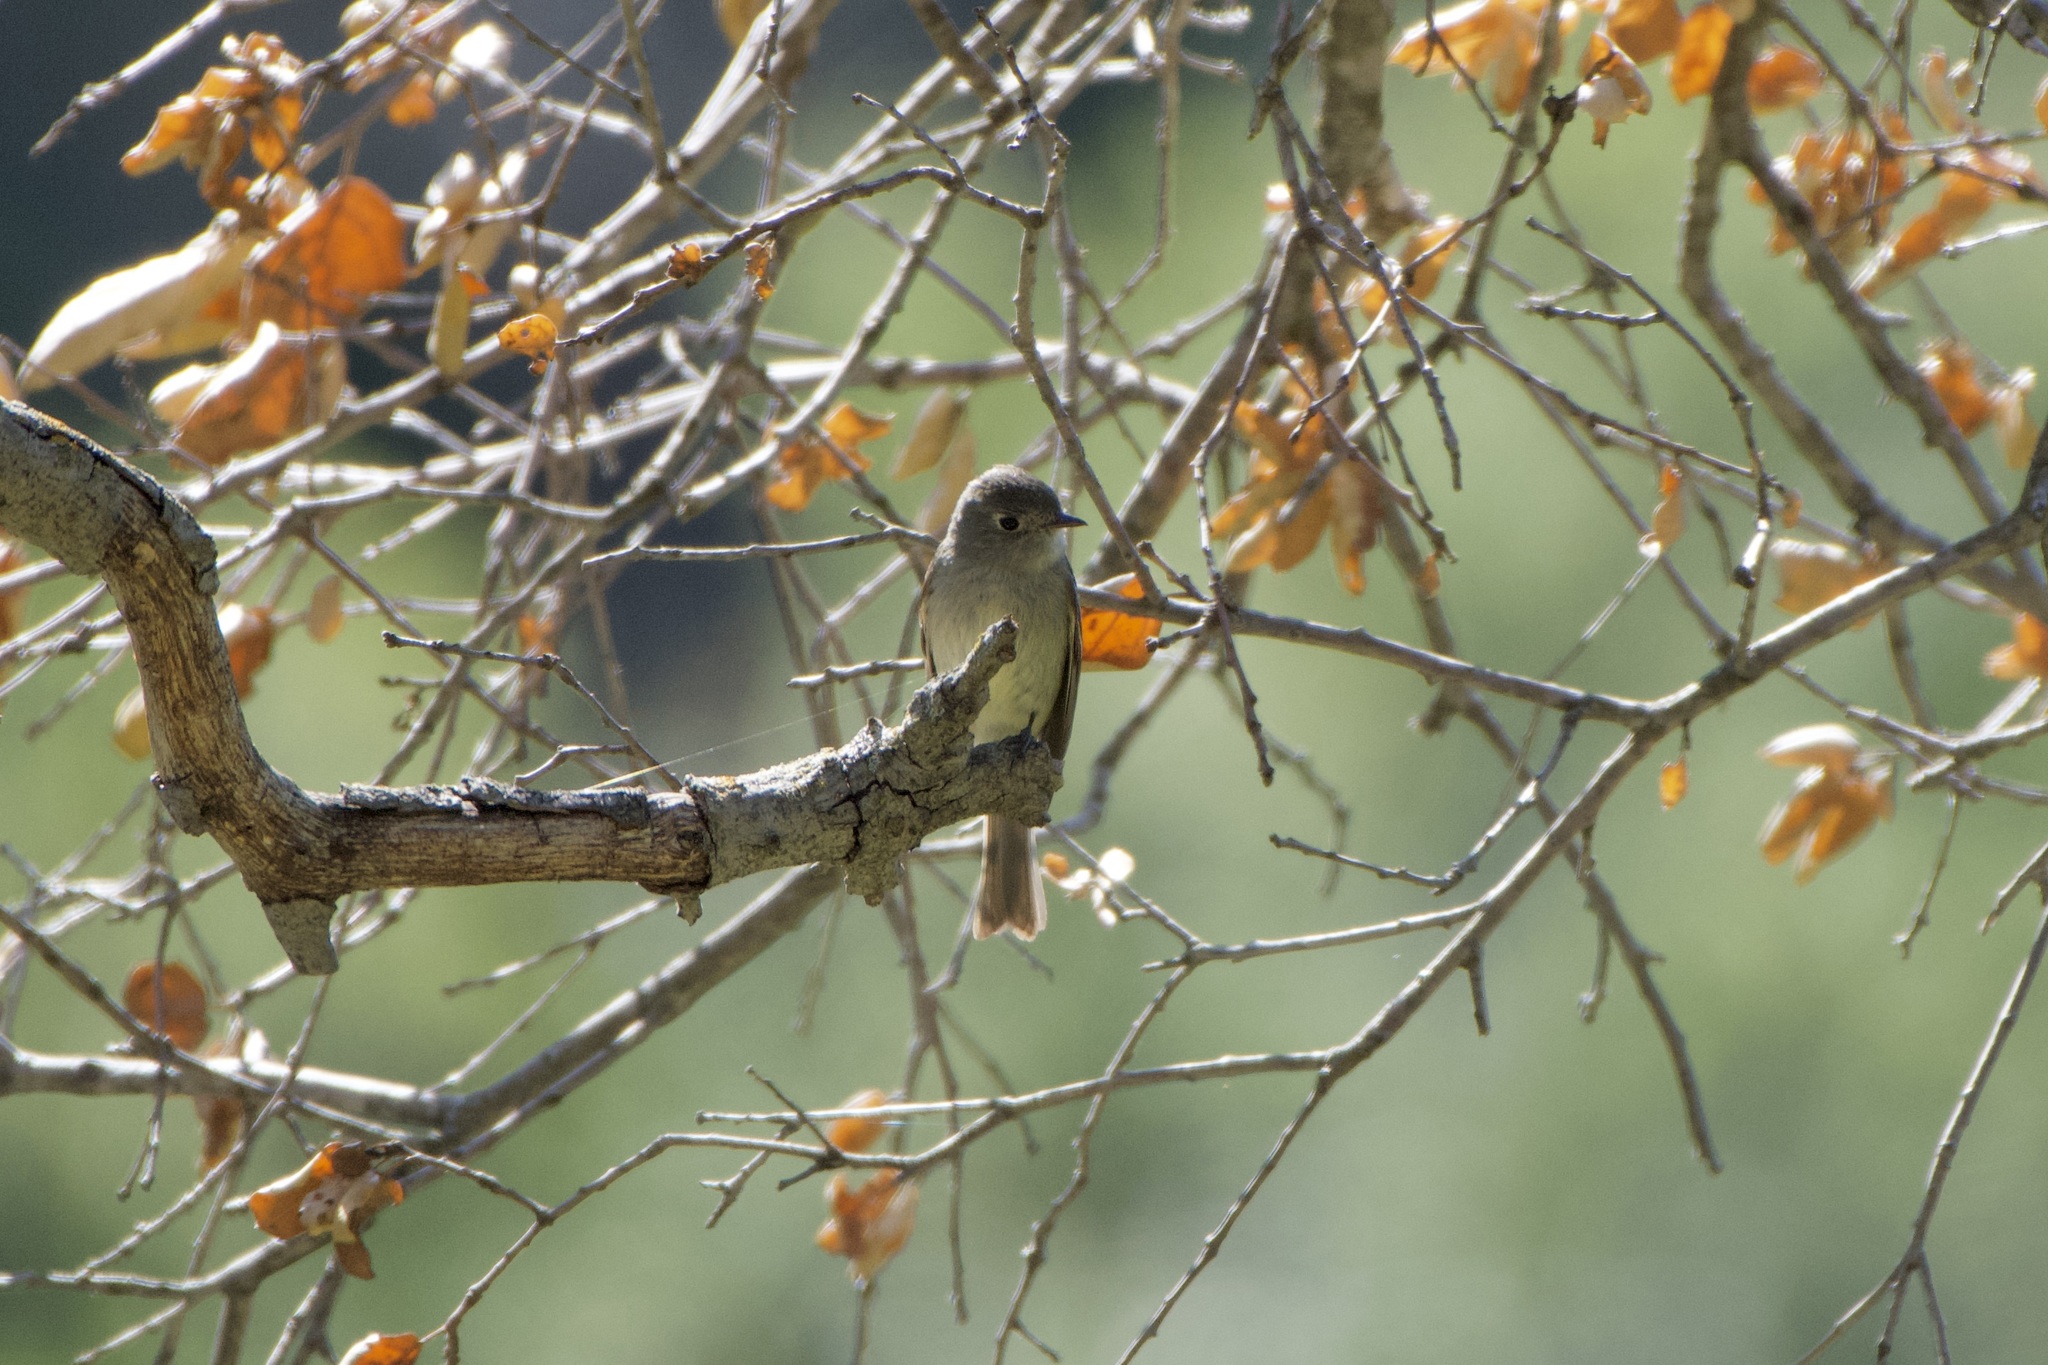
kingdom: Animalia
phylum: Chordata
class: Aves
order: Passeriformes
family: Tyrannidae
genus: Empidonax
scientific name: Empidonax hammondii
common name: Hammond's flycatcher
